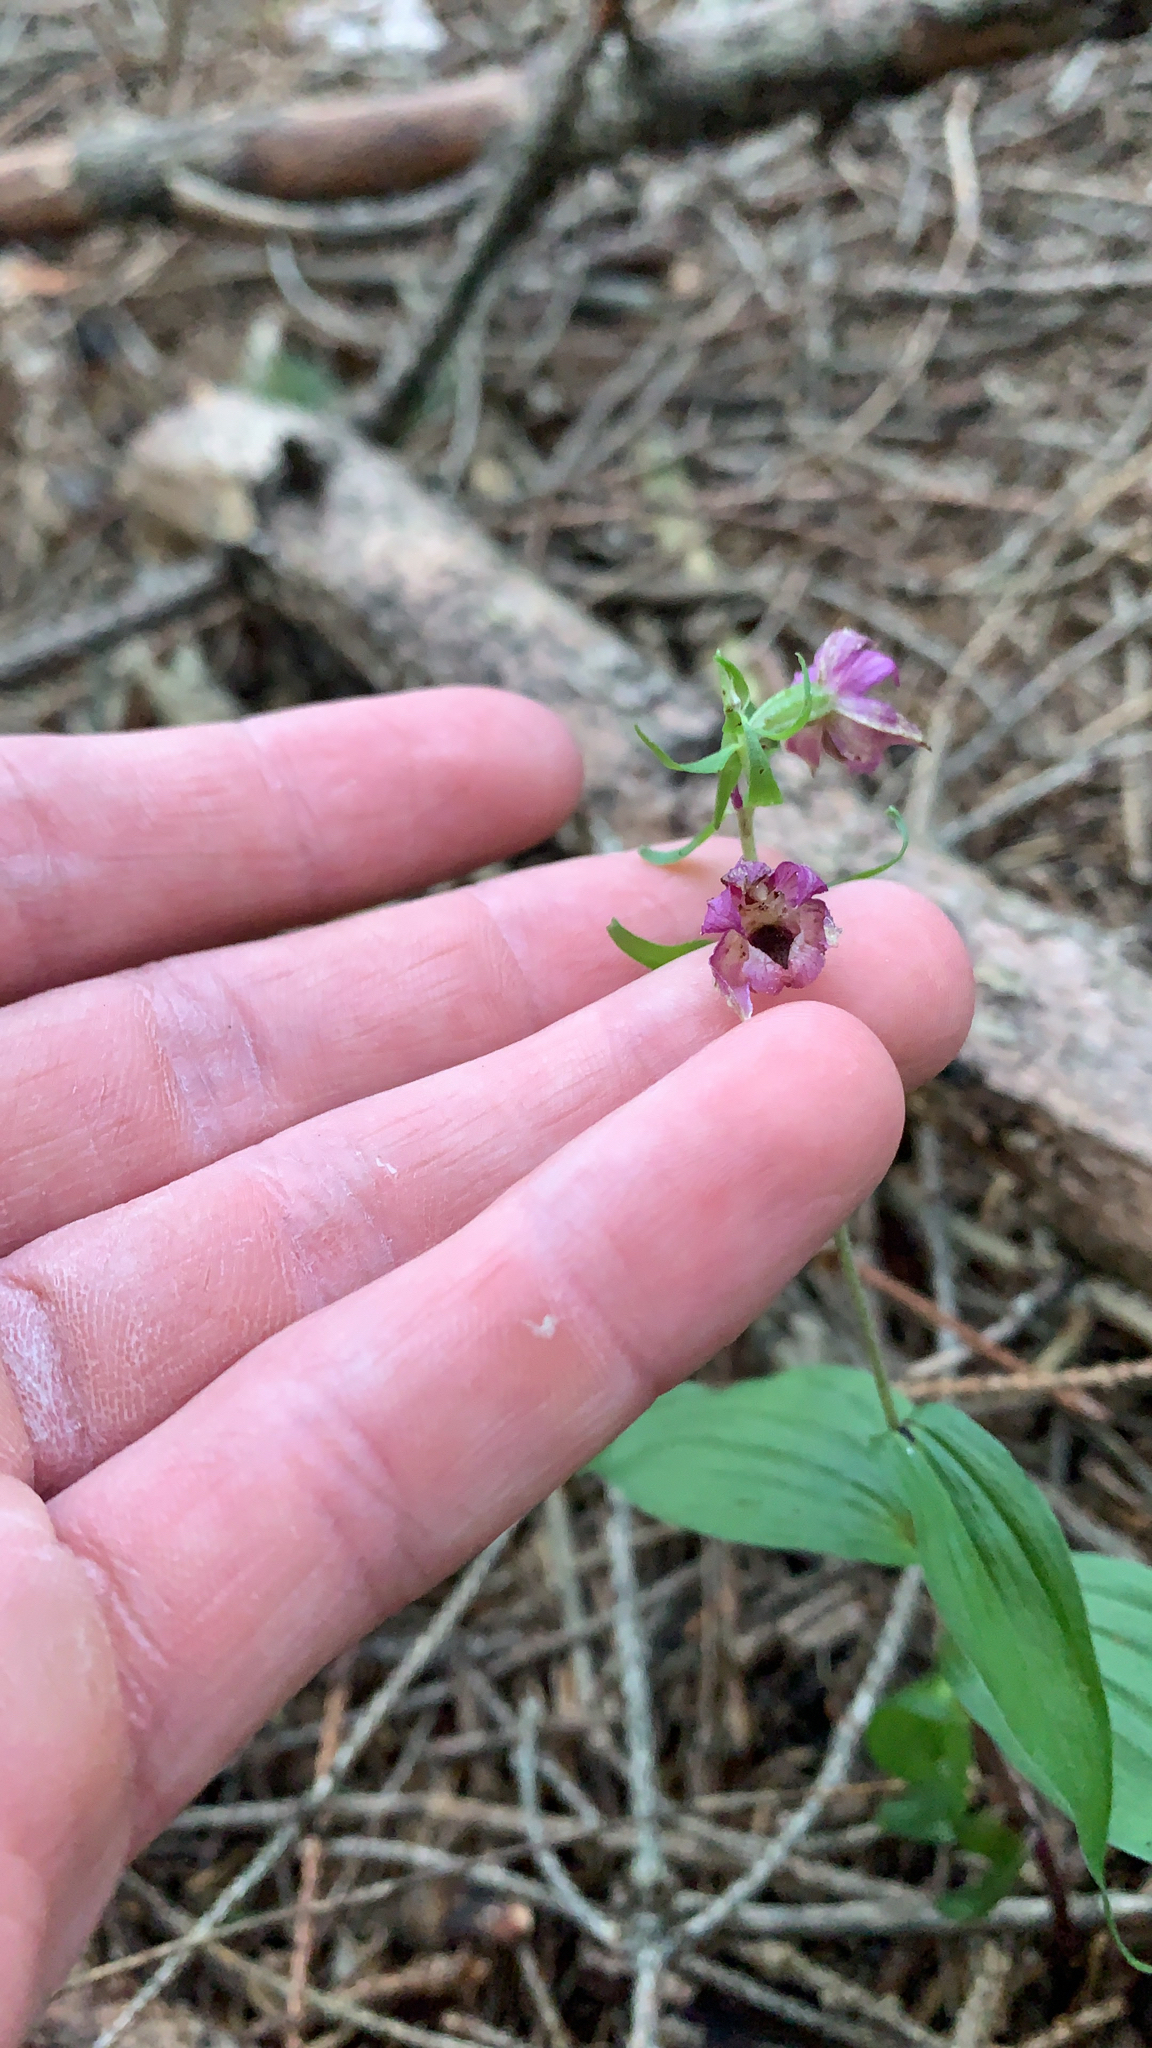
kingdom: Plantae
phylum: Tracheophyta
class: Liliopsida
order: Asparagales
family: Orchidaceae
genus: Epipactis
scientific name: Epipactis helleborine
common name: Broad-leaved helleborine
